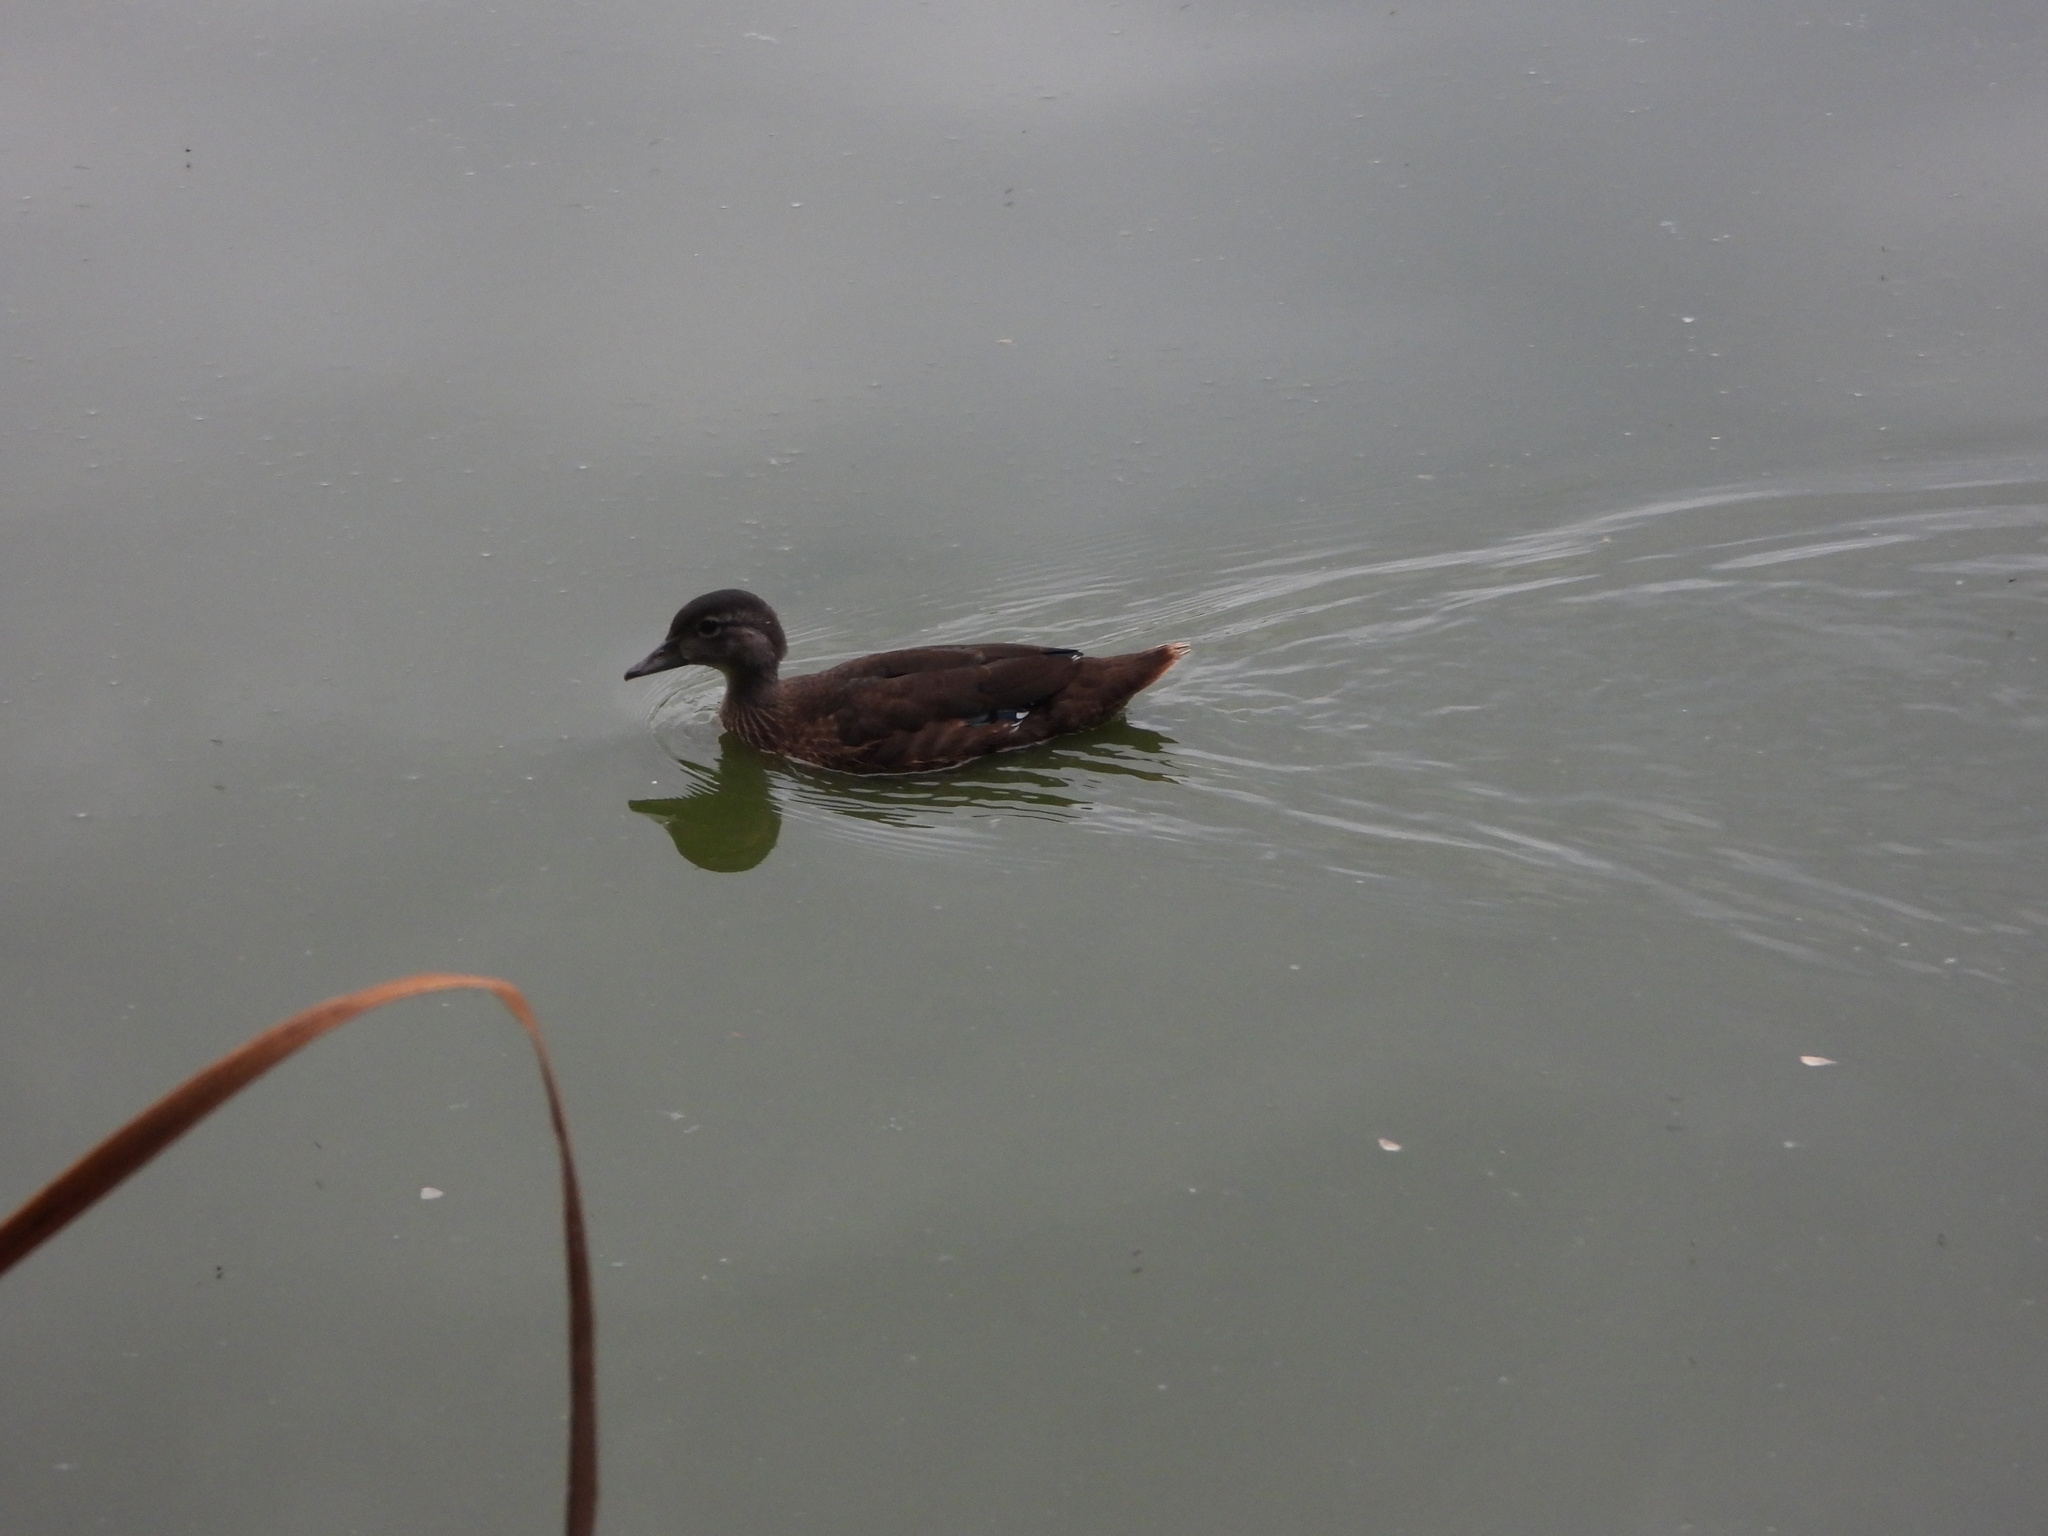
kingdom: Animalia
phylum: Chordata
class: Aves
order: Anseriformes
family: Anatidae
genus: Aix
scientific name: Aix sponsa
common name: Wood duck
